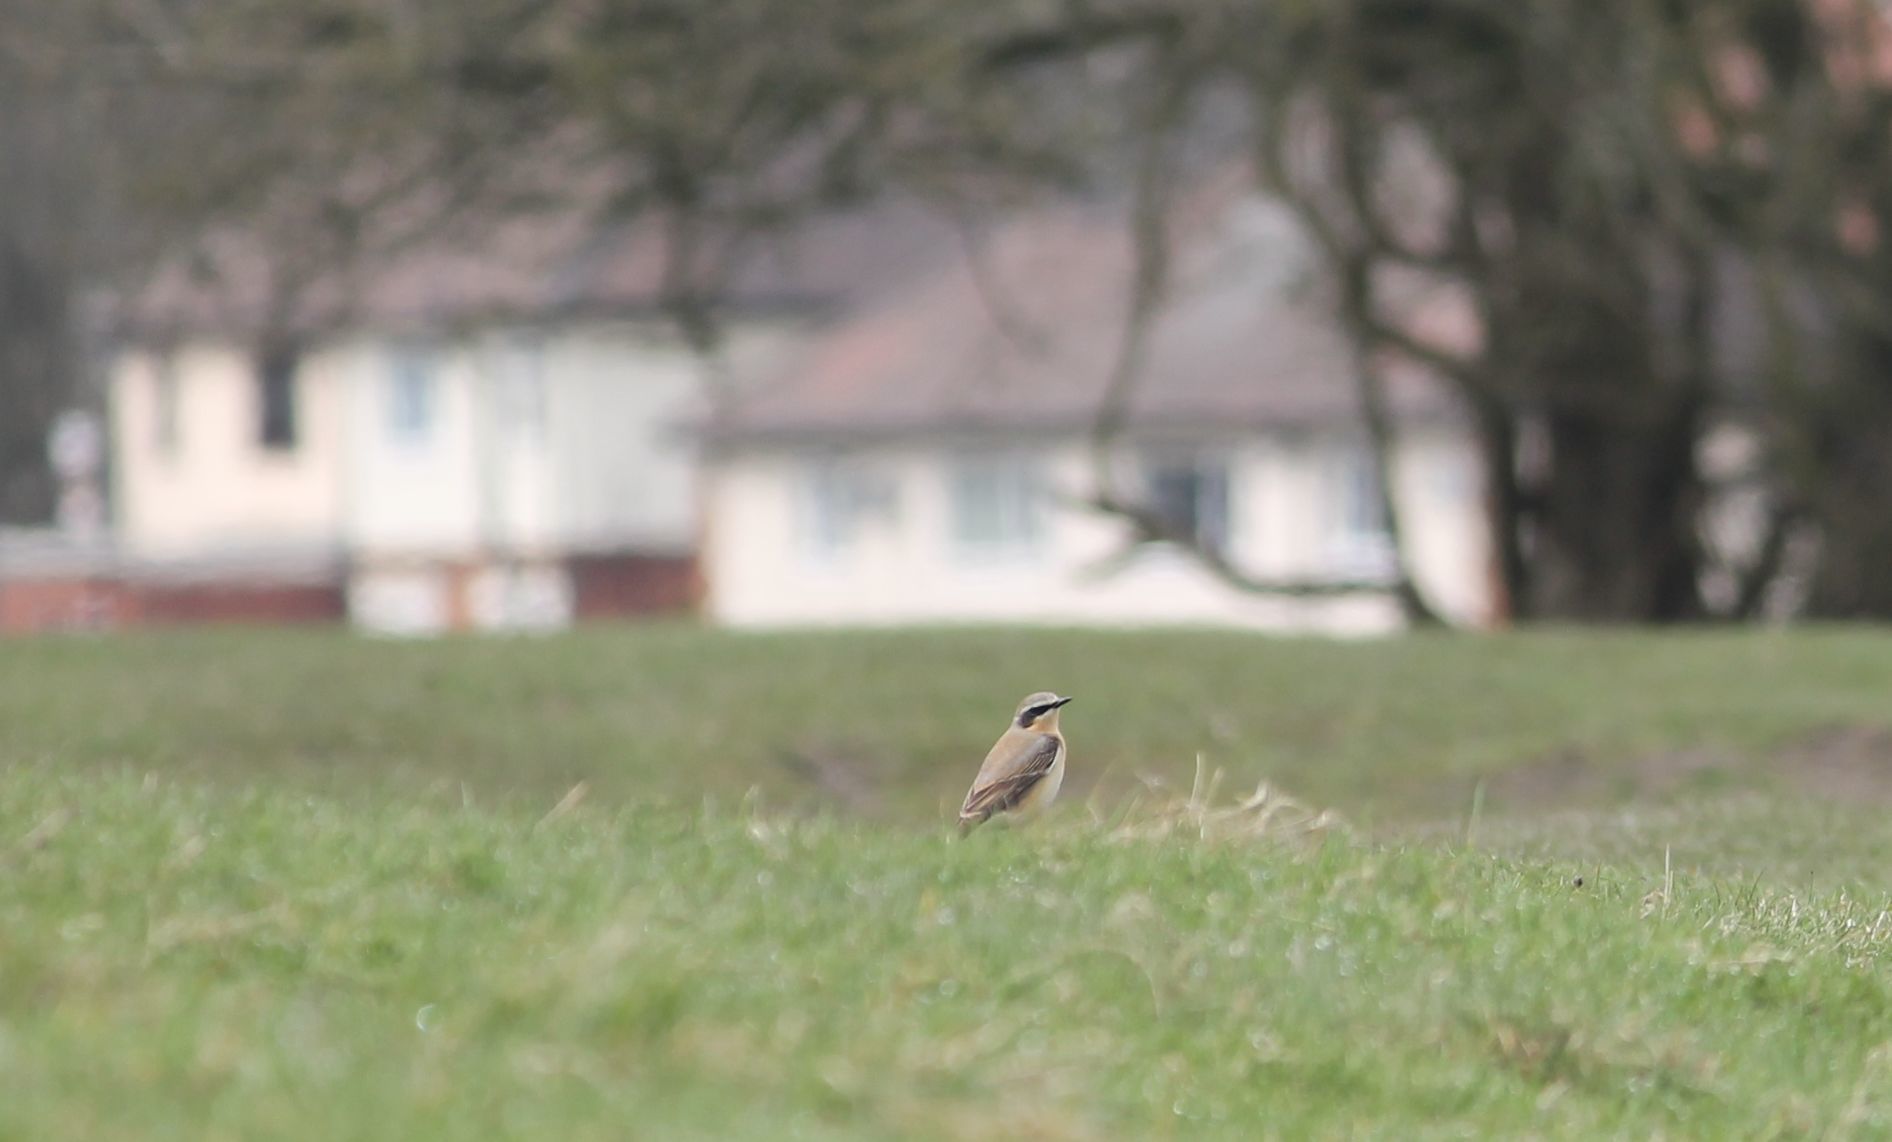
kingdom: Animalia
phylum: Chordata
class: Aves
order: Passeriformes
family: Muscicapidae
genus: Oenanthe
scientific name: Oenanthe oenanthe
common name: Northern wheatear
